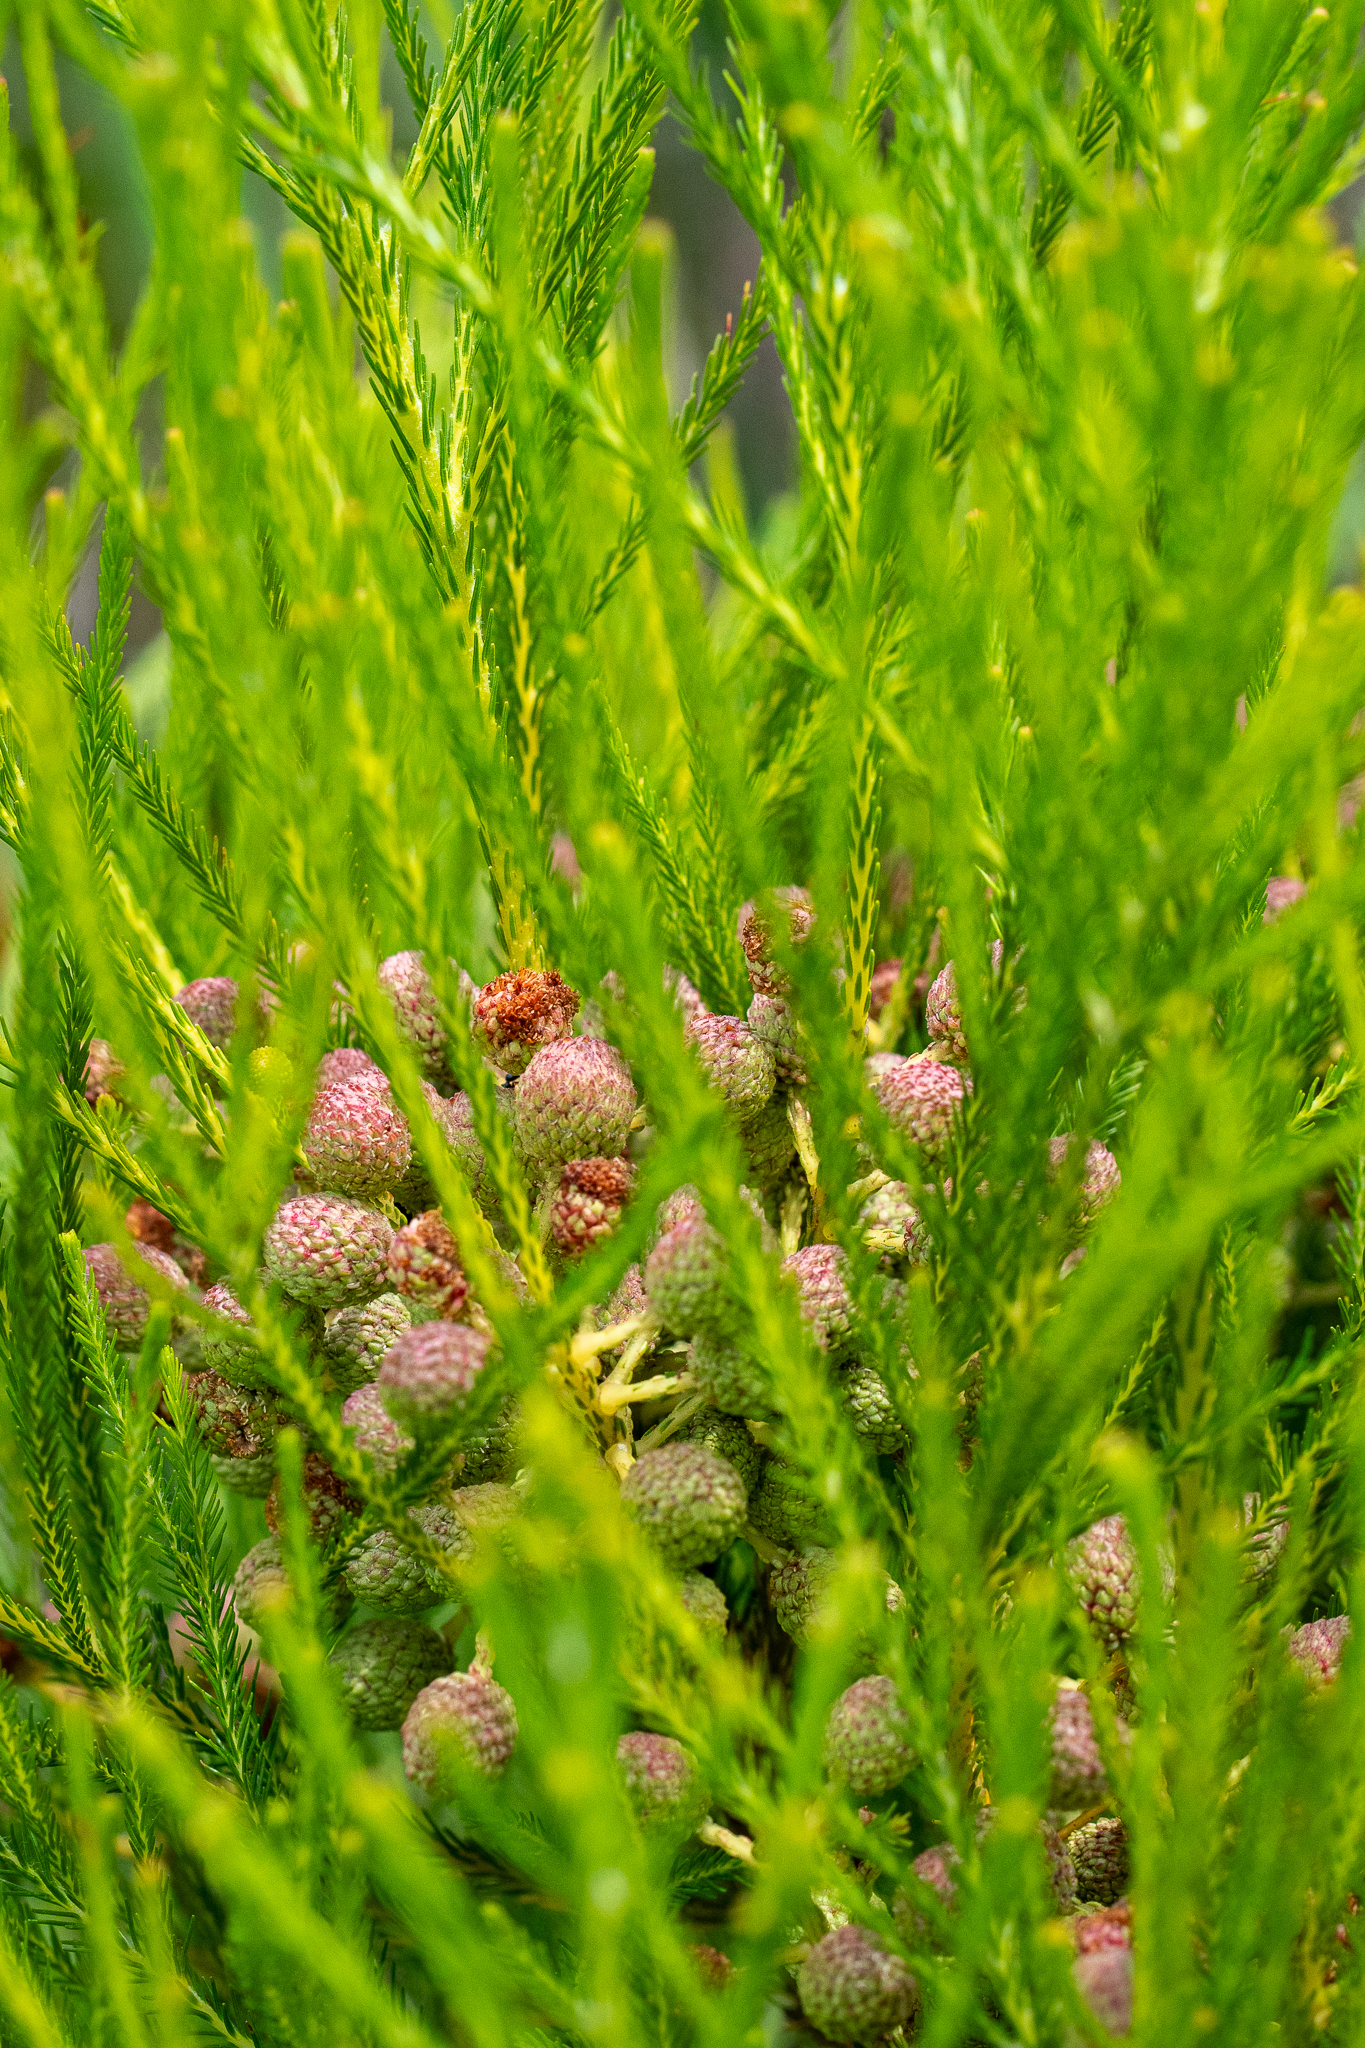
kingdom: Plantae
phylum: Tracheophyta
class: Magnoliopsida
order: Bruniales
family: Bruniaceae
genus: Berzelia
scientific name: Berzelia lanuginosa
